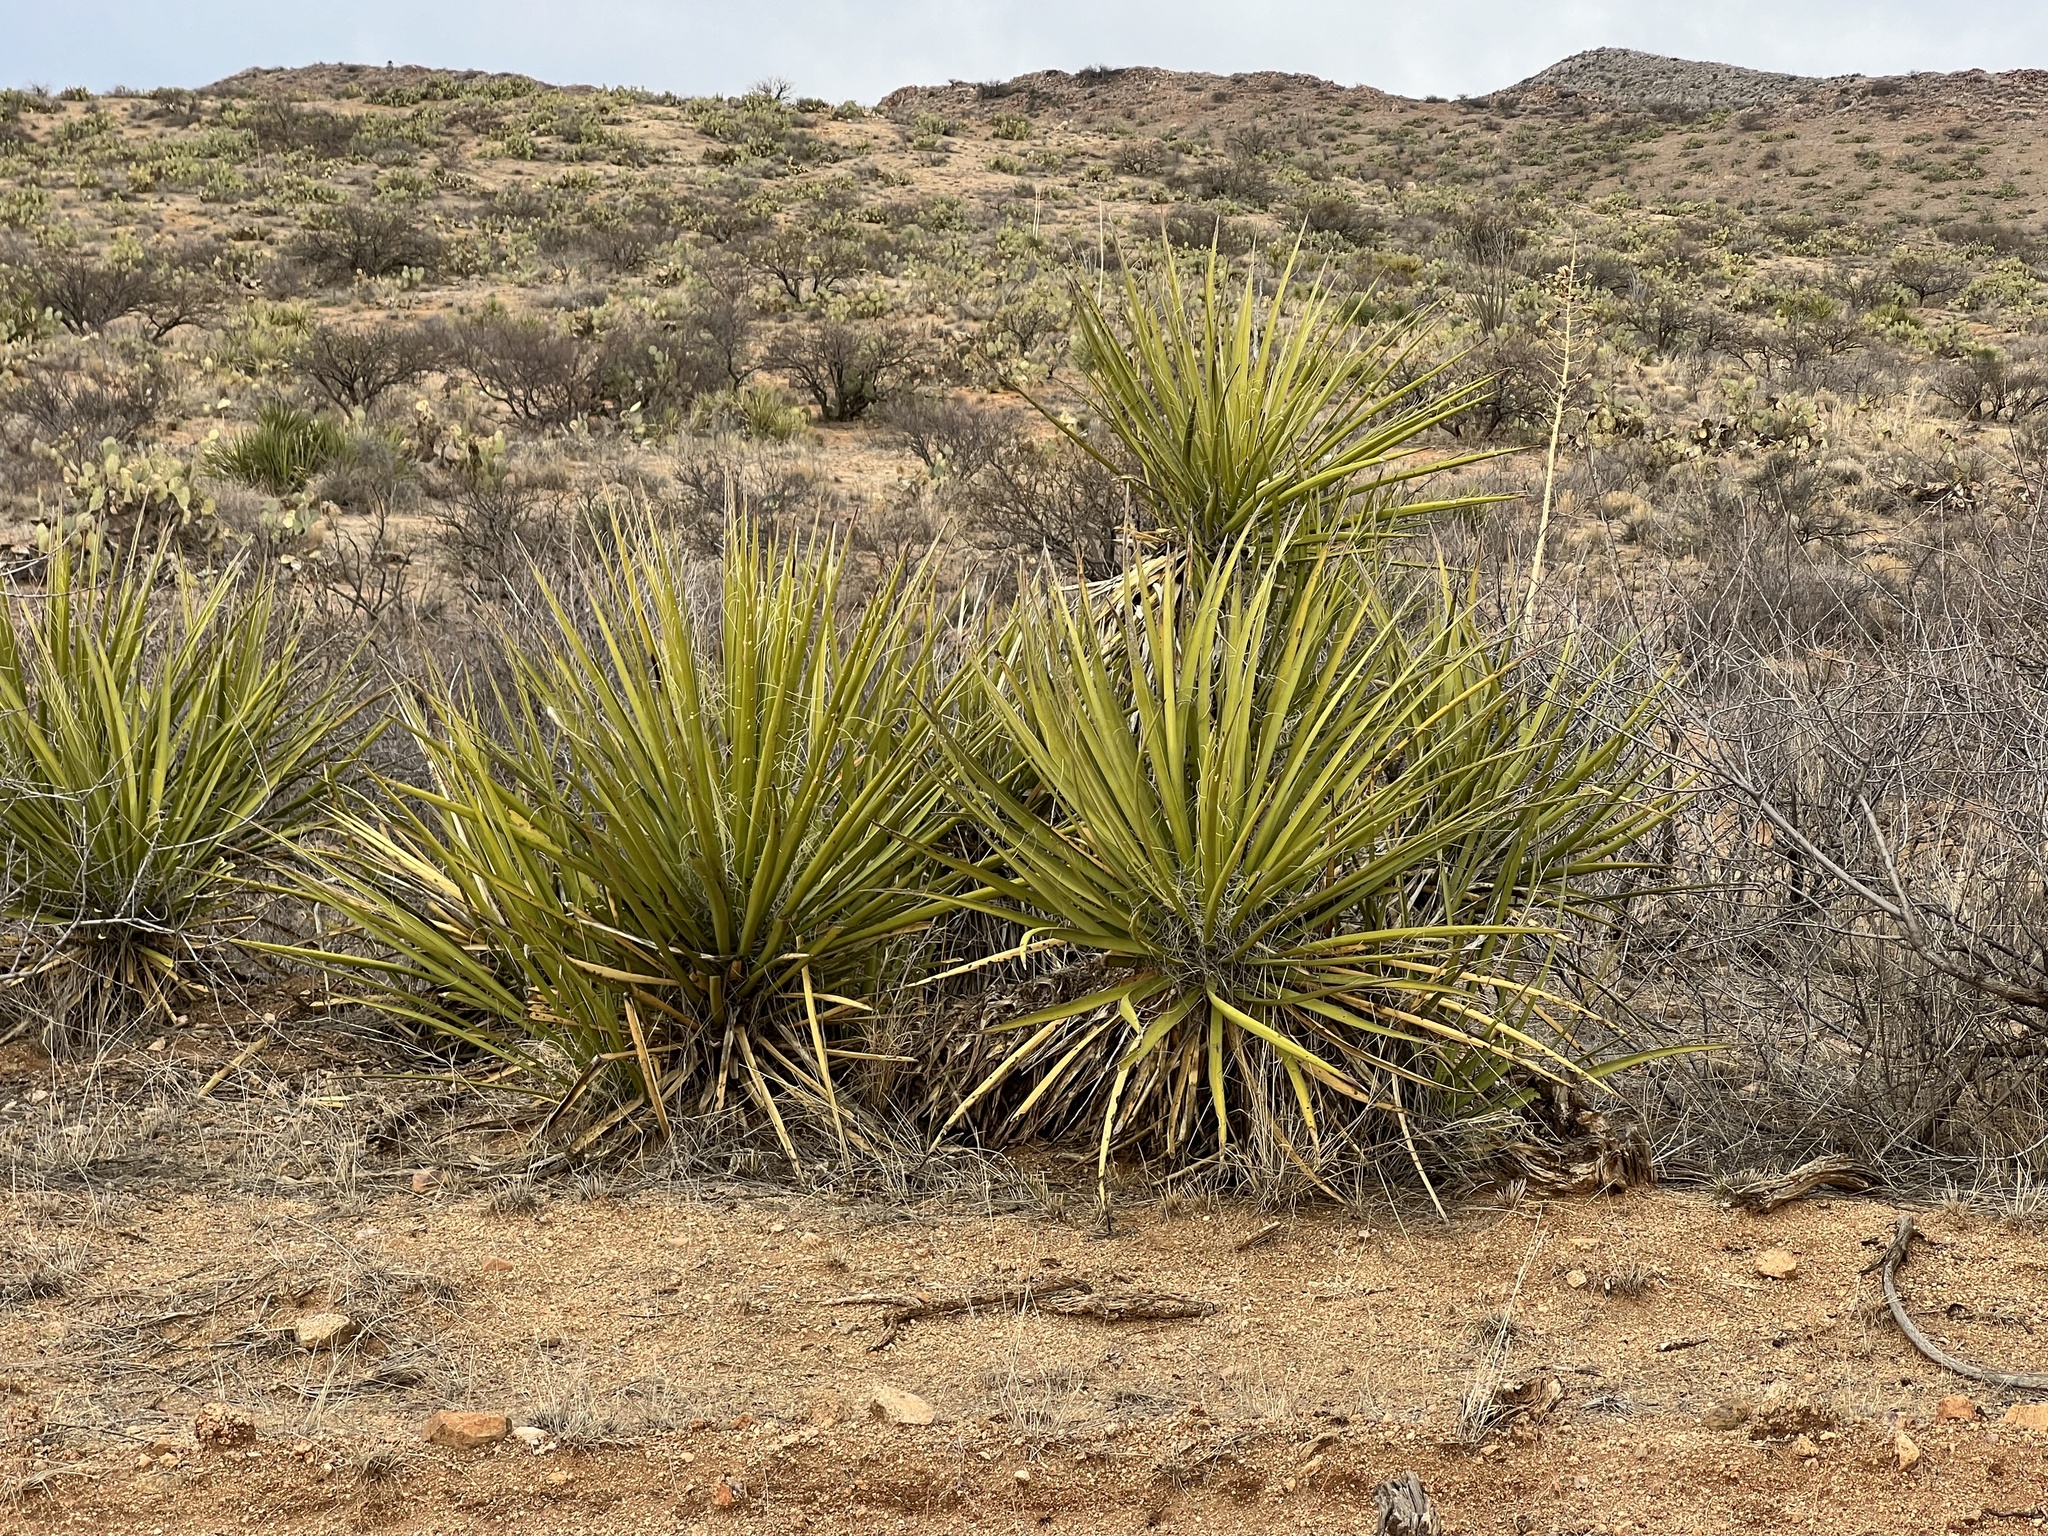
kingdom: Plantae
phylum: Tracheophyta
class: Liliopsida
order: Asparagales
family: Asparagaceae
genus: Yucca
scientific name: Yucca baccata
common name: Banana yucca
